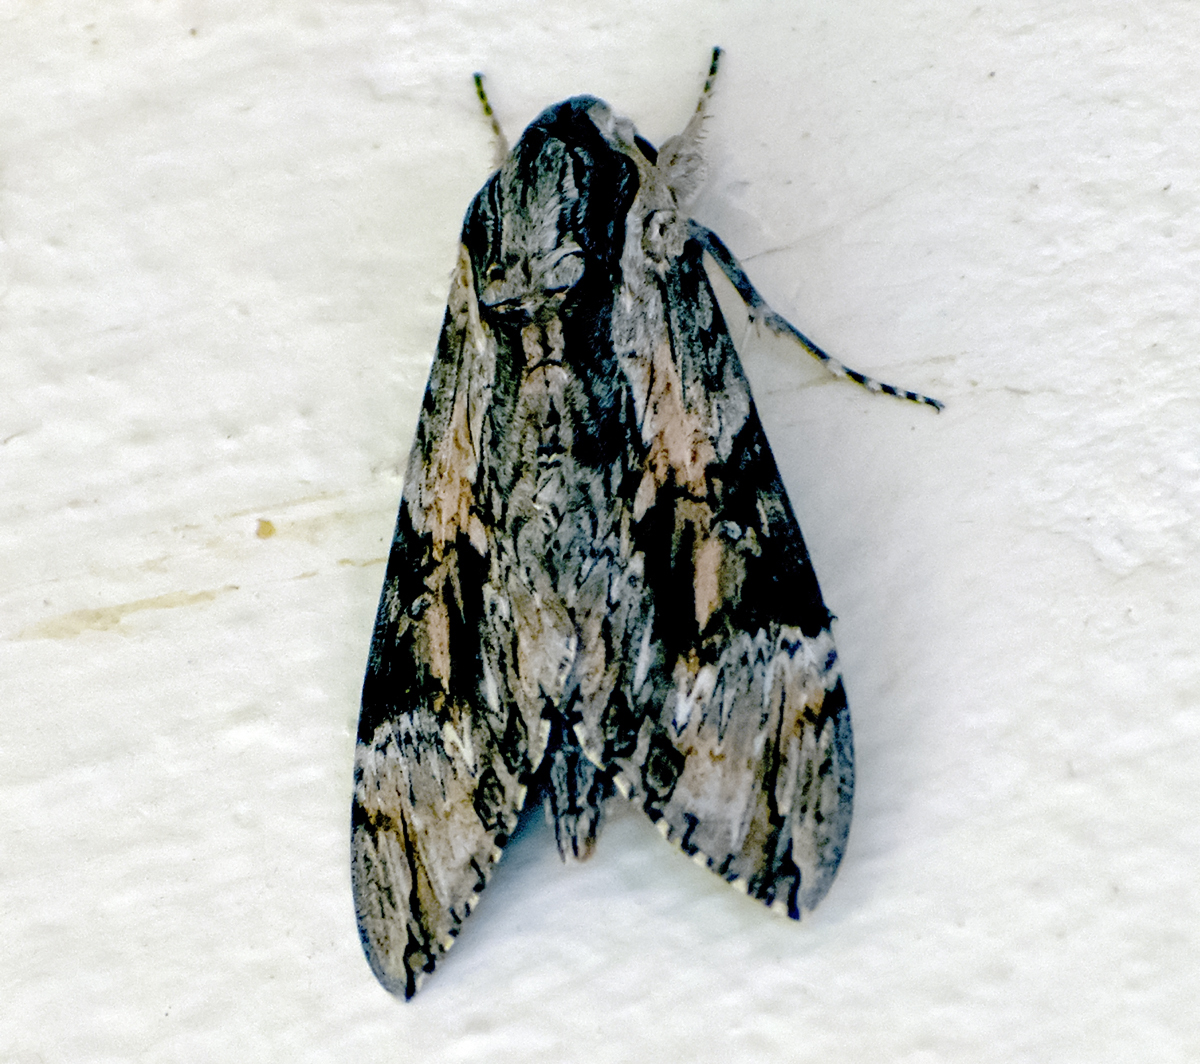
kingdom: Animalia
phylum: Arthropoda
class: Insecta
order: Lepidoptera
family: Sphingidae
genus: Agrius
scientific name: Agrius convolvuli
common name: Convolvulus hawkmoth
